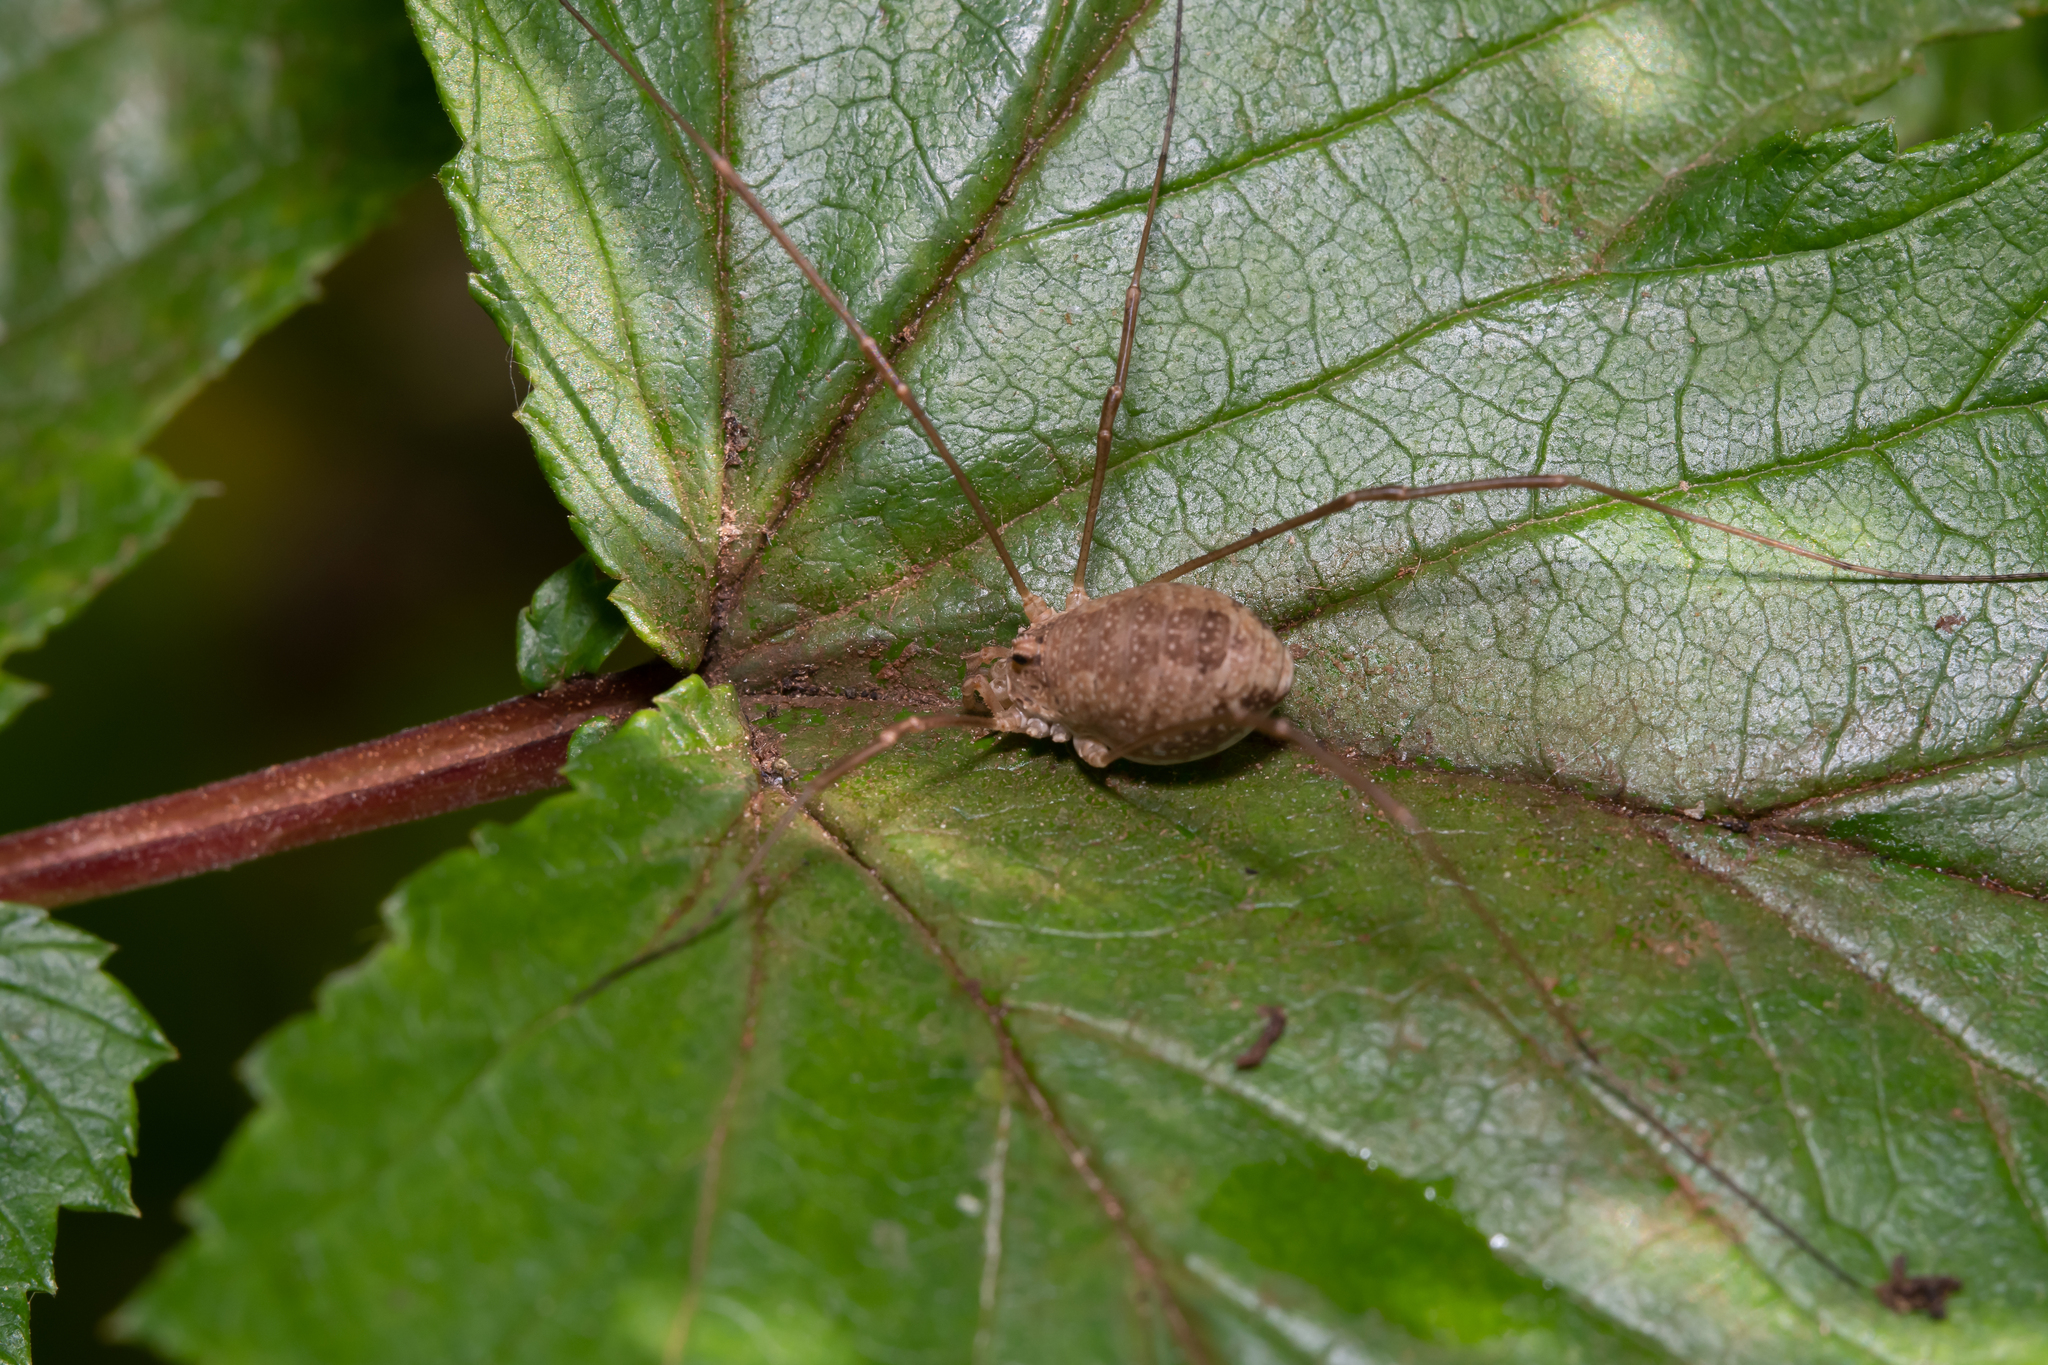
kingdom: Animalia
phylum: Arthropoda
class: Arachnida
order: Opiliones
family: Phalangiidae
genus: Rilaena
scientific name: Rilaena triangularis
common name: Spring harvestman
